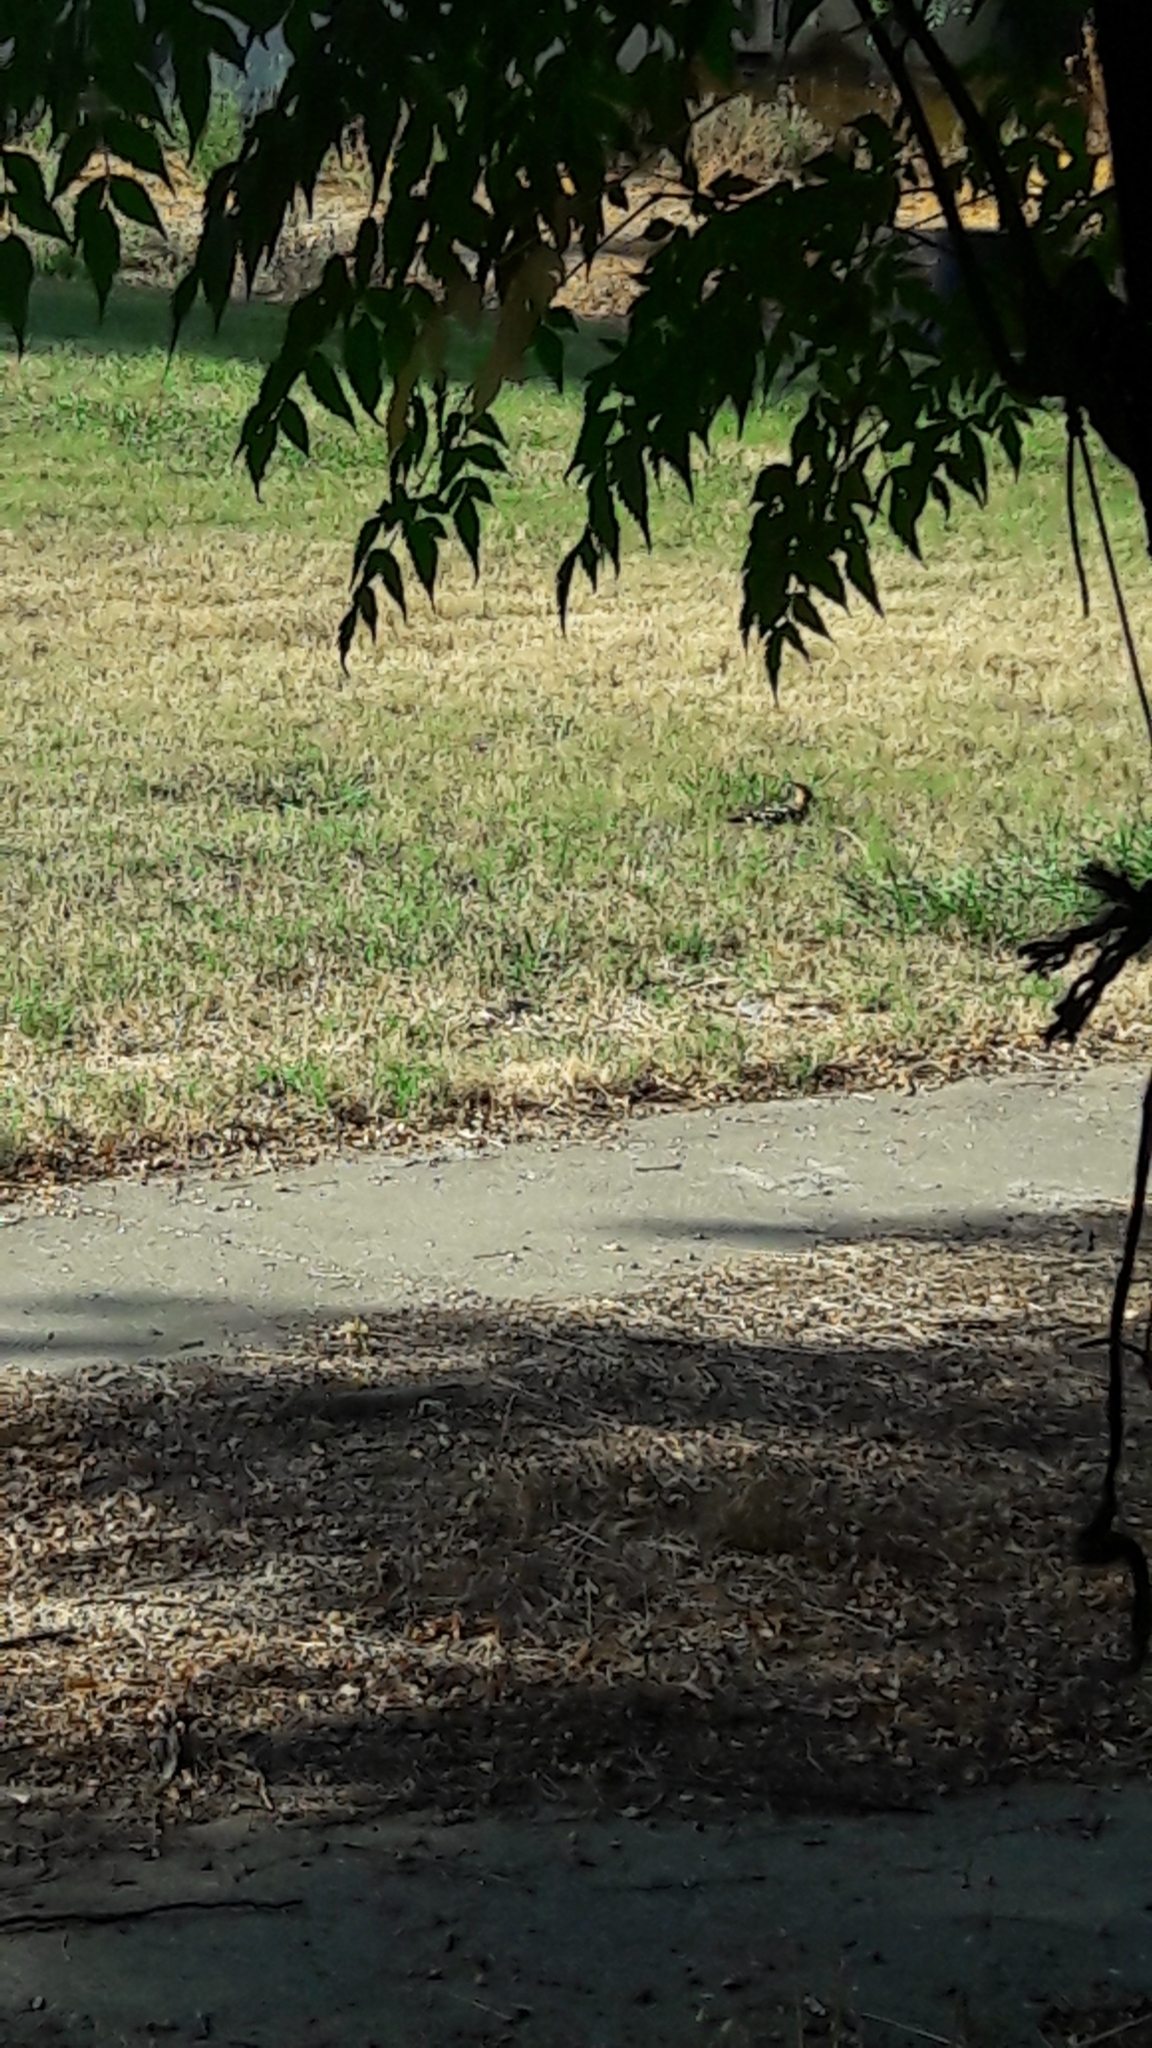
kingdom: Animalia
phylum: Chordata
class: Aves
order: Bucerotiformes
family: Upupidae
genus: Upupa
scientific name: Upupa epops
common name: Eurasian hoopoe
